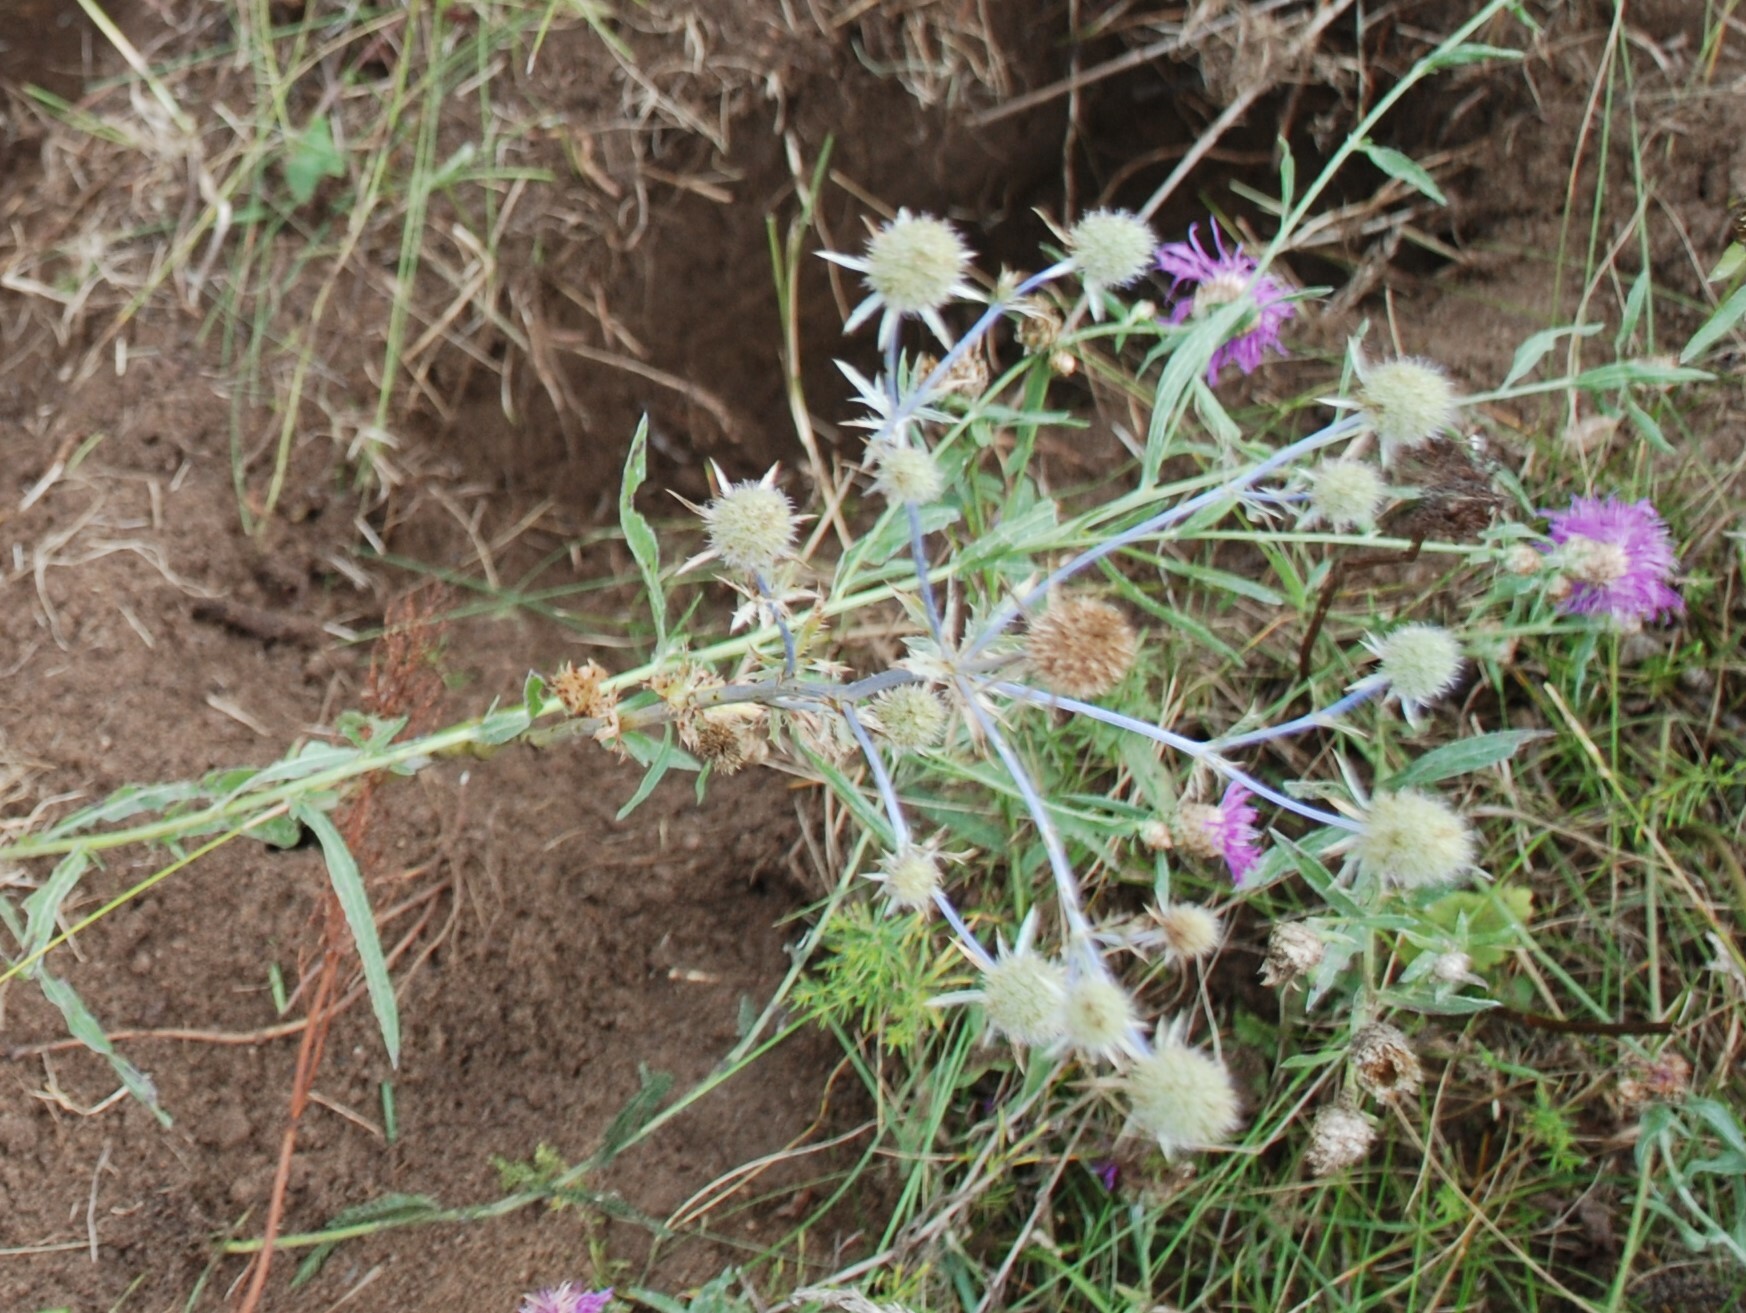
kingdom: Plantae
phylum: Tracheophyta
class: Magnoliopsida
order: Apiales
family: Apiaceae
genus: Eryngium
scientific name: Eryngium planum
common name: Blue eryngo
